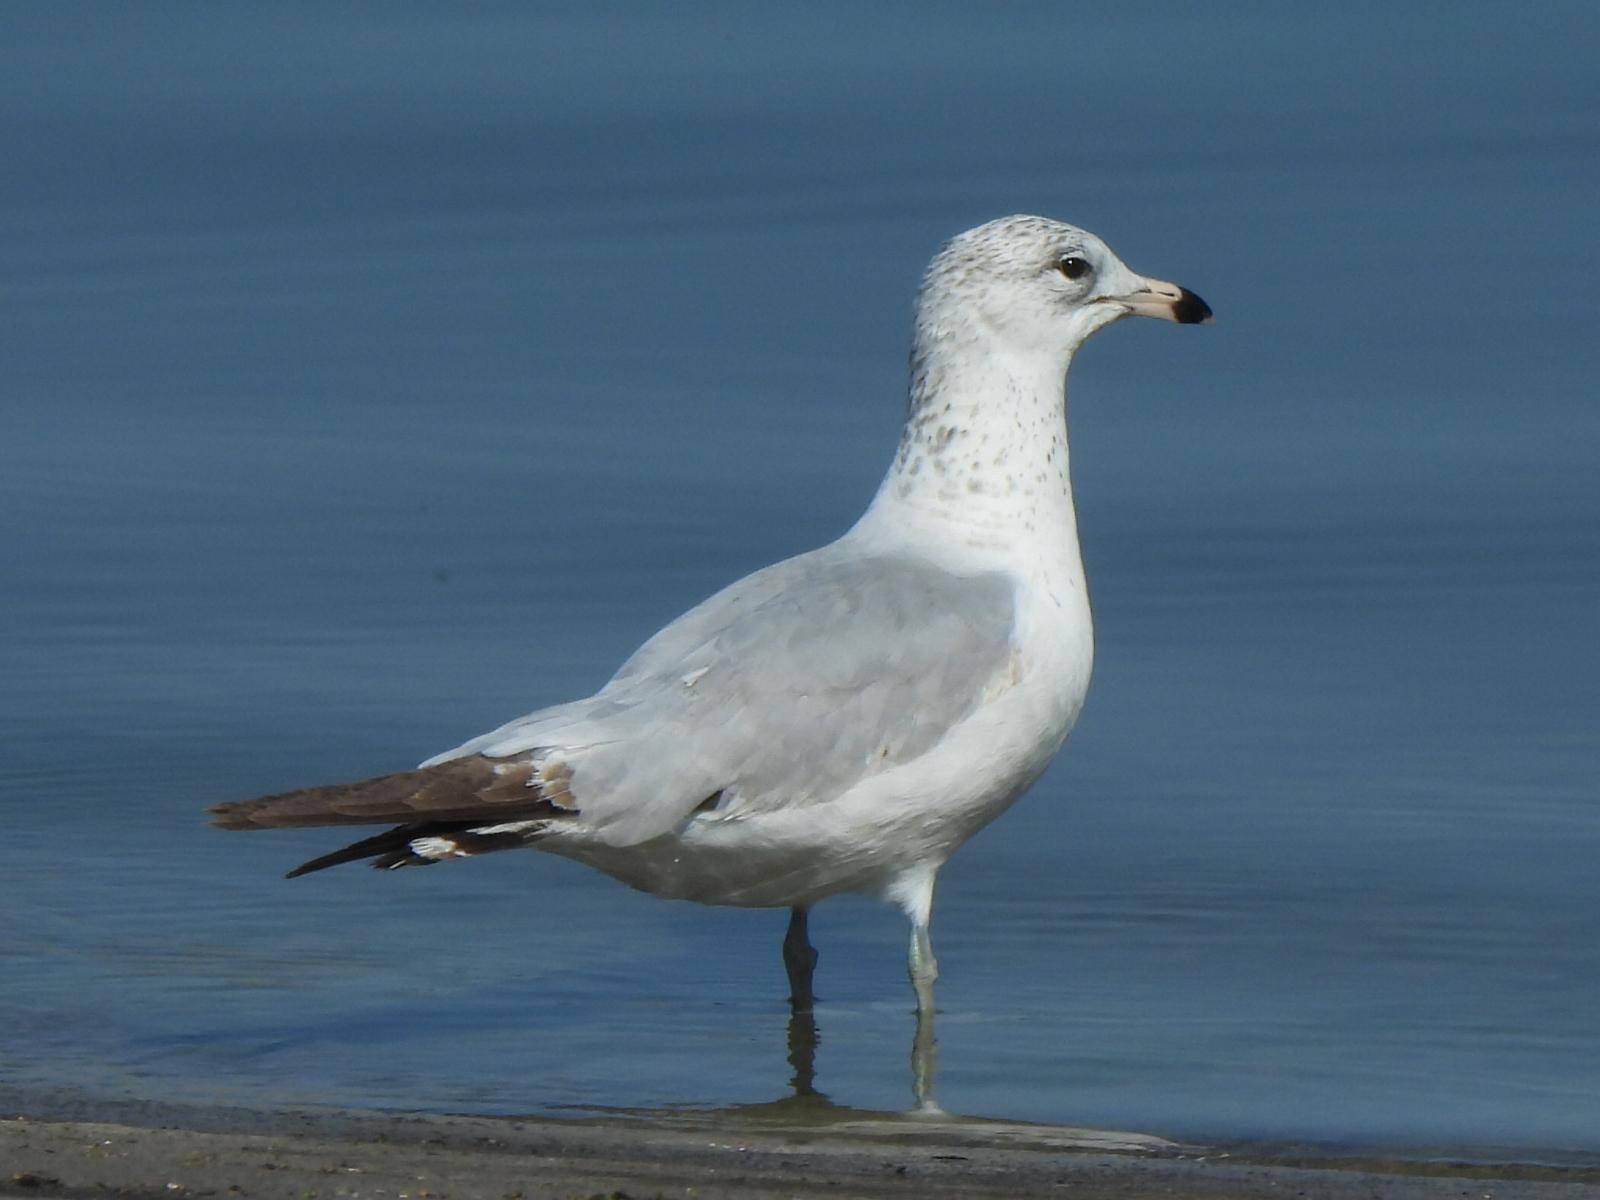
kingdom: Animalia
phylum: Chordata
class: Aves
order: Charadriiformes
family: Laridae
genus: Larus
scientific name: Larus delawarensis
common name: Ring-billed gull
